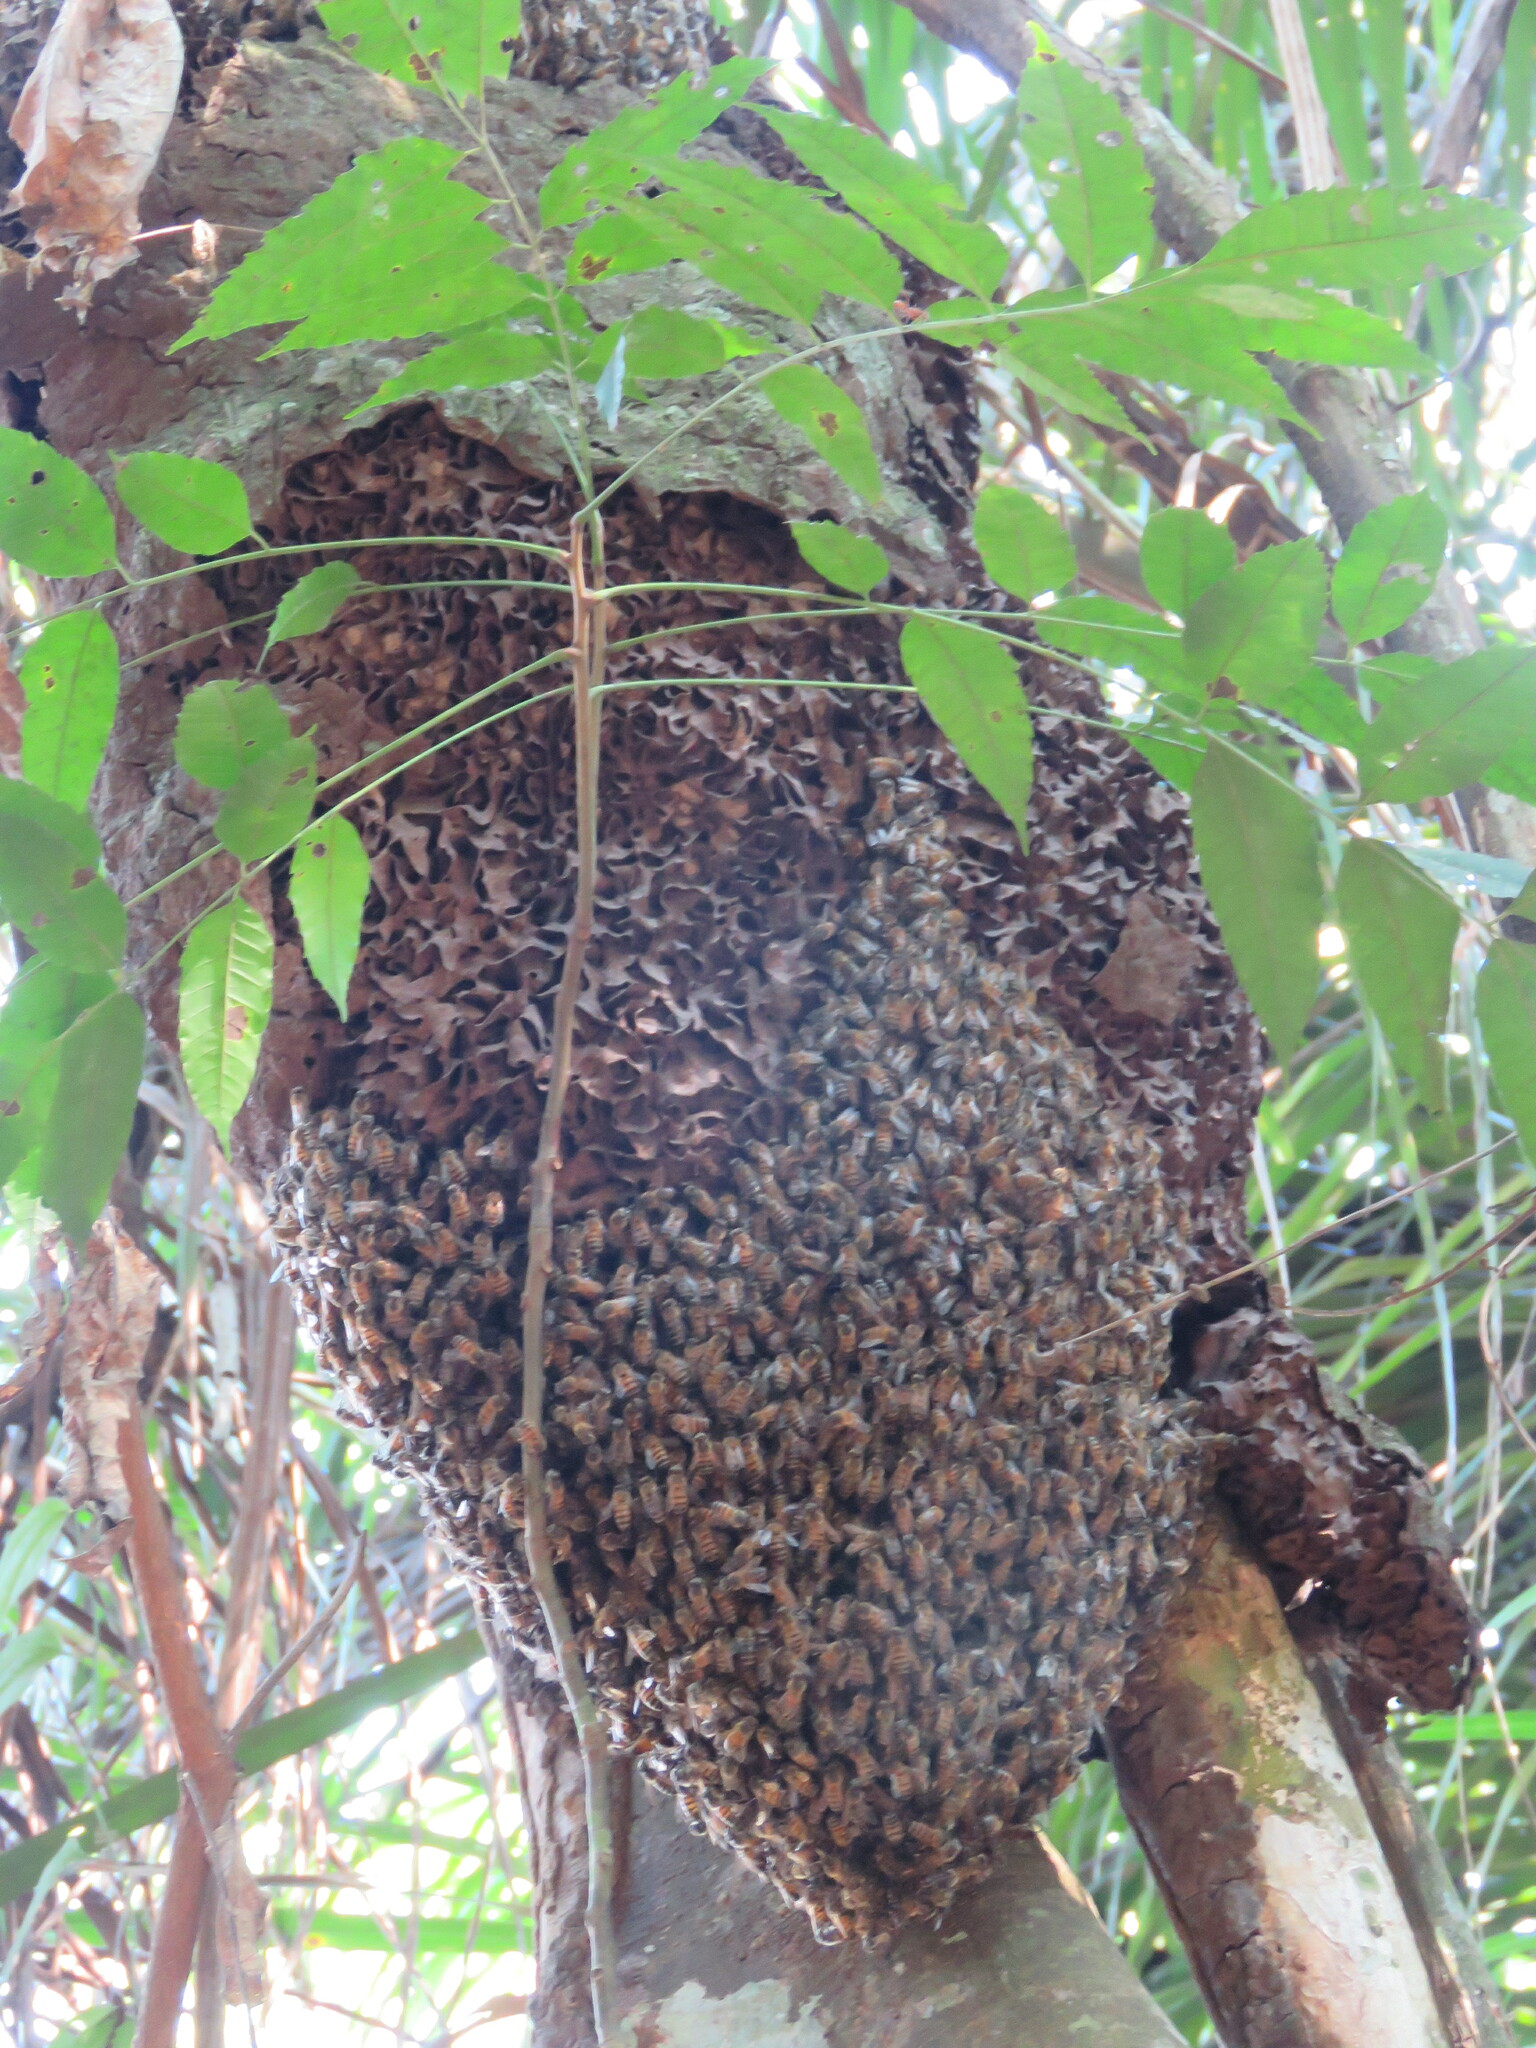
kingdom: Animalia
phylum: Arthropoda
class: Insecta
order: Hymenoptera
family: Apidae
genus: Apis
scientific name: Apis mellifera
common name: Honey bee
